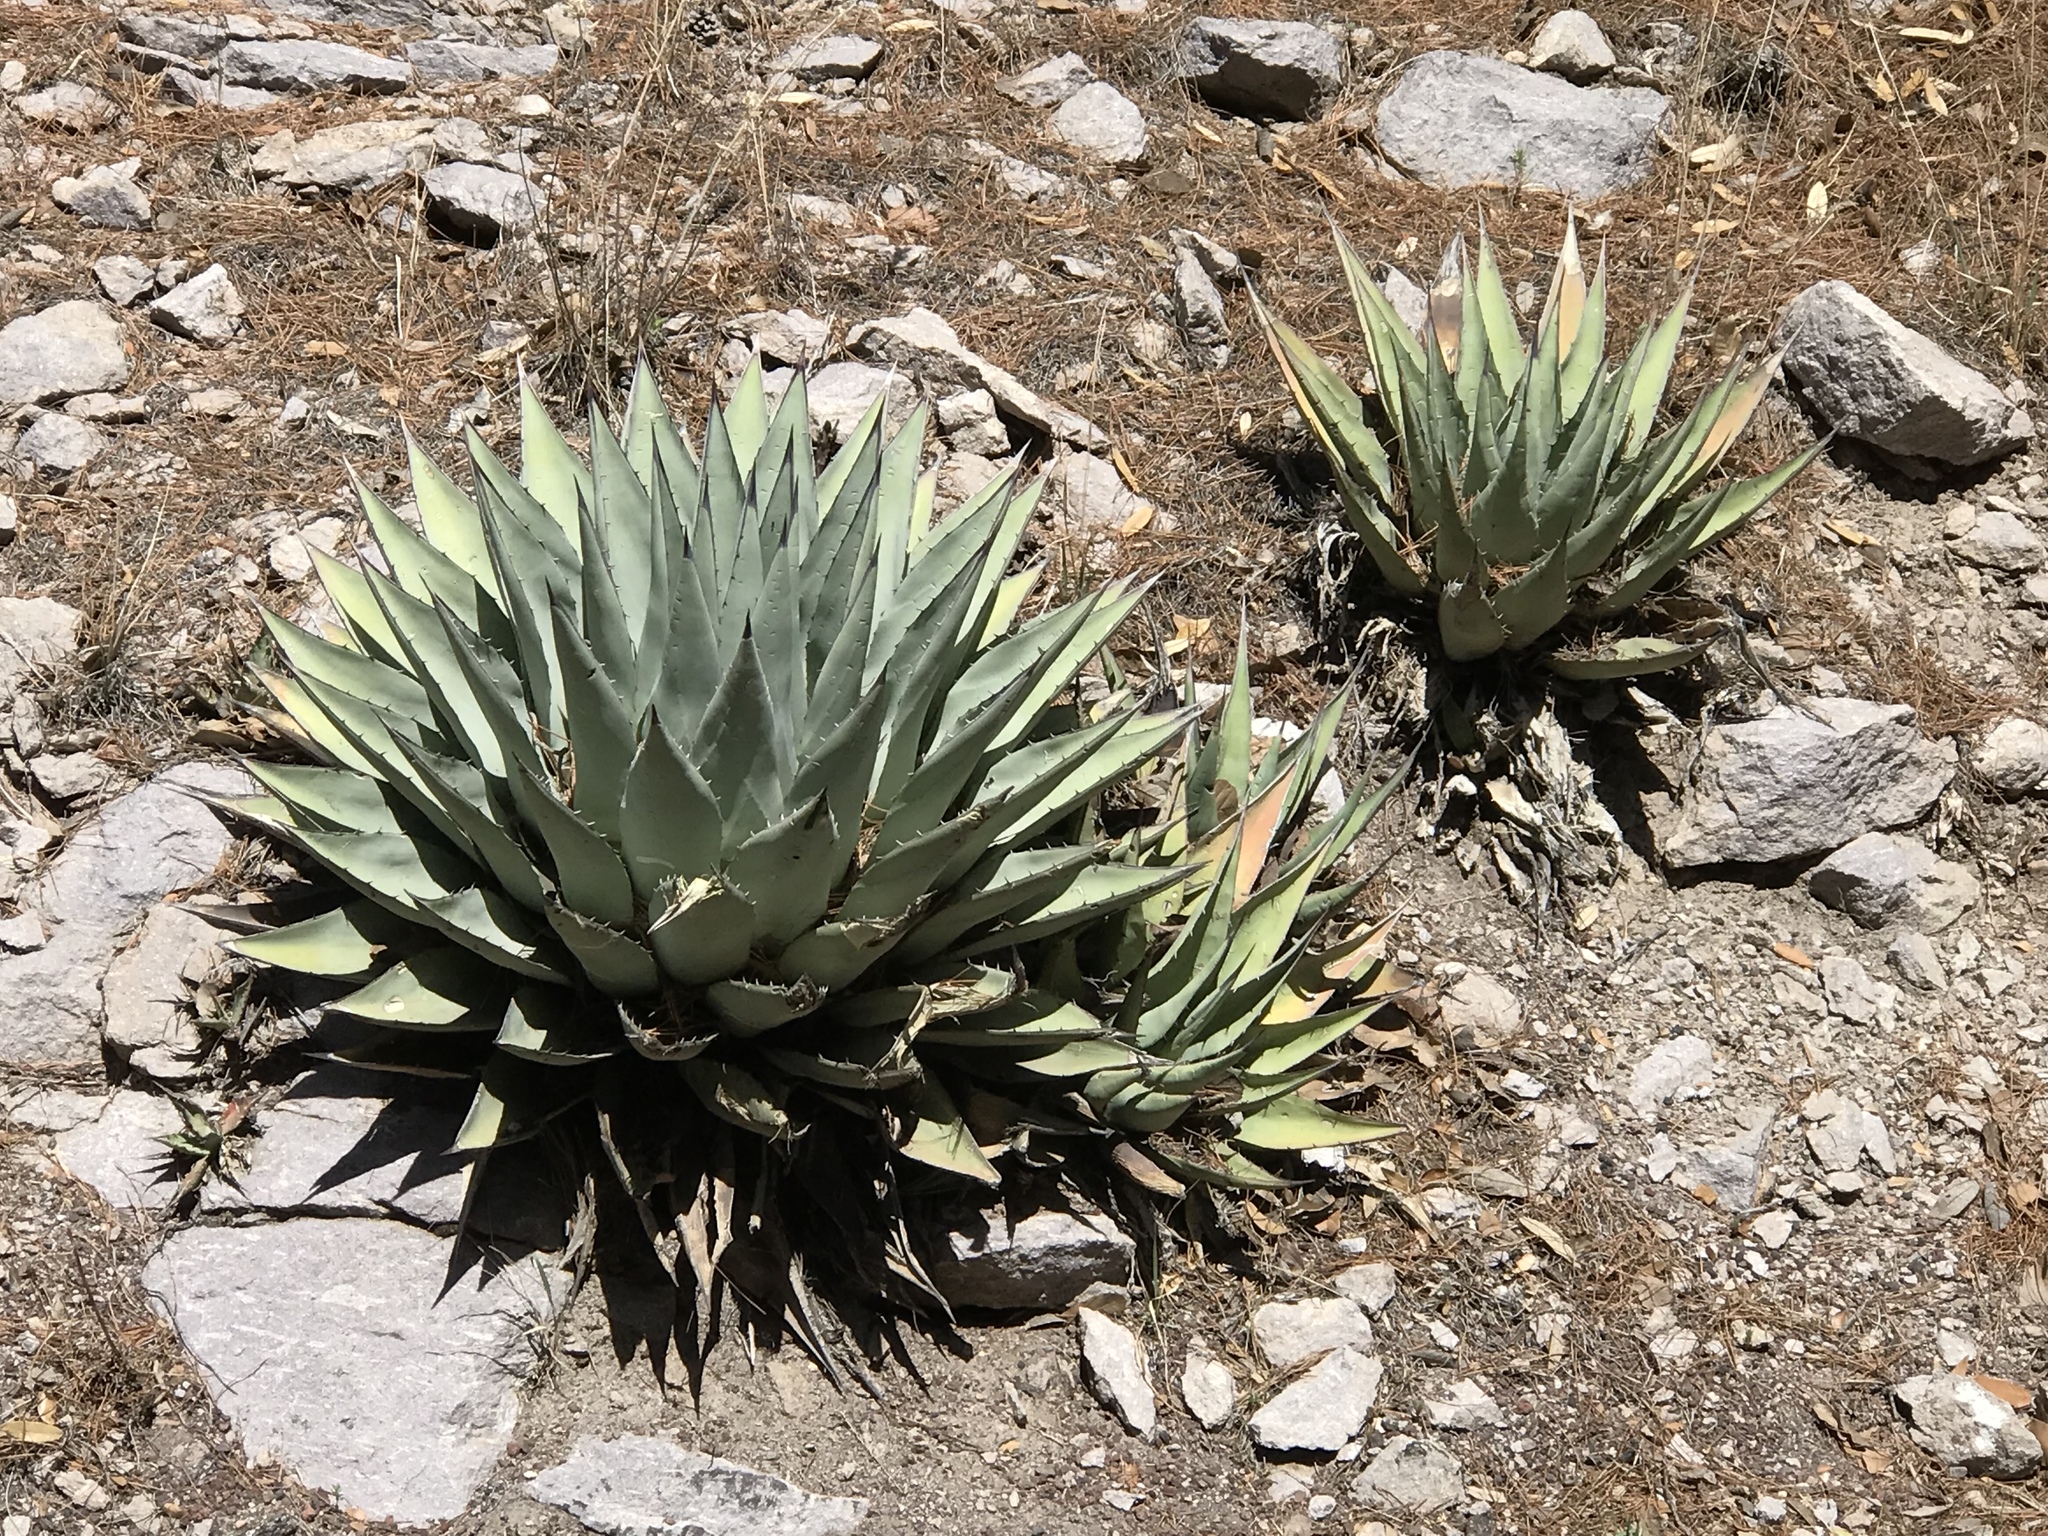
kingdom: Plantae
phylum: Tracheophyta
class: Liliopsida
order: Asparagales
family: Asparagaceae
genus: Agave
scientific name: Agave parryi
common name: Parry's agave
